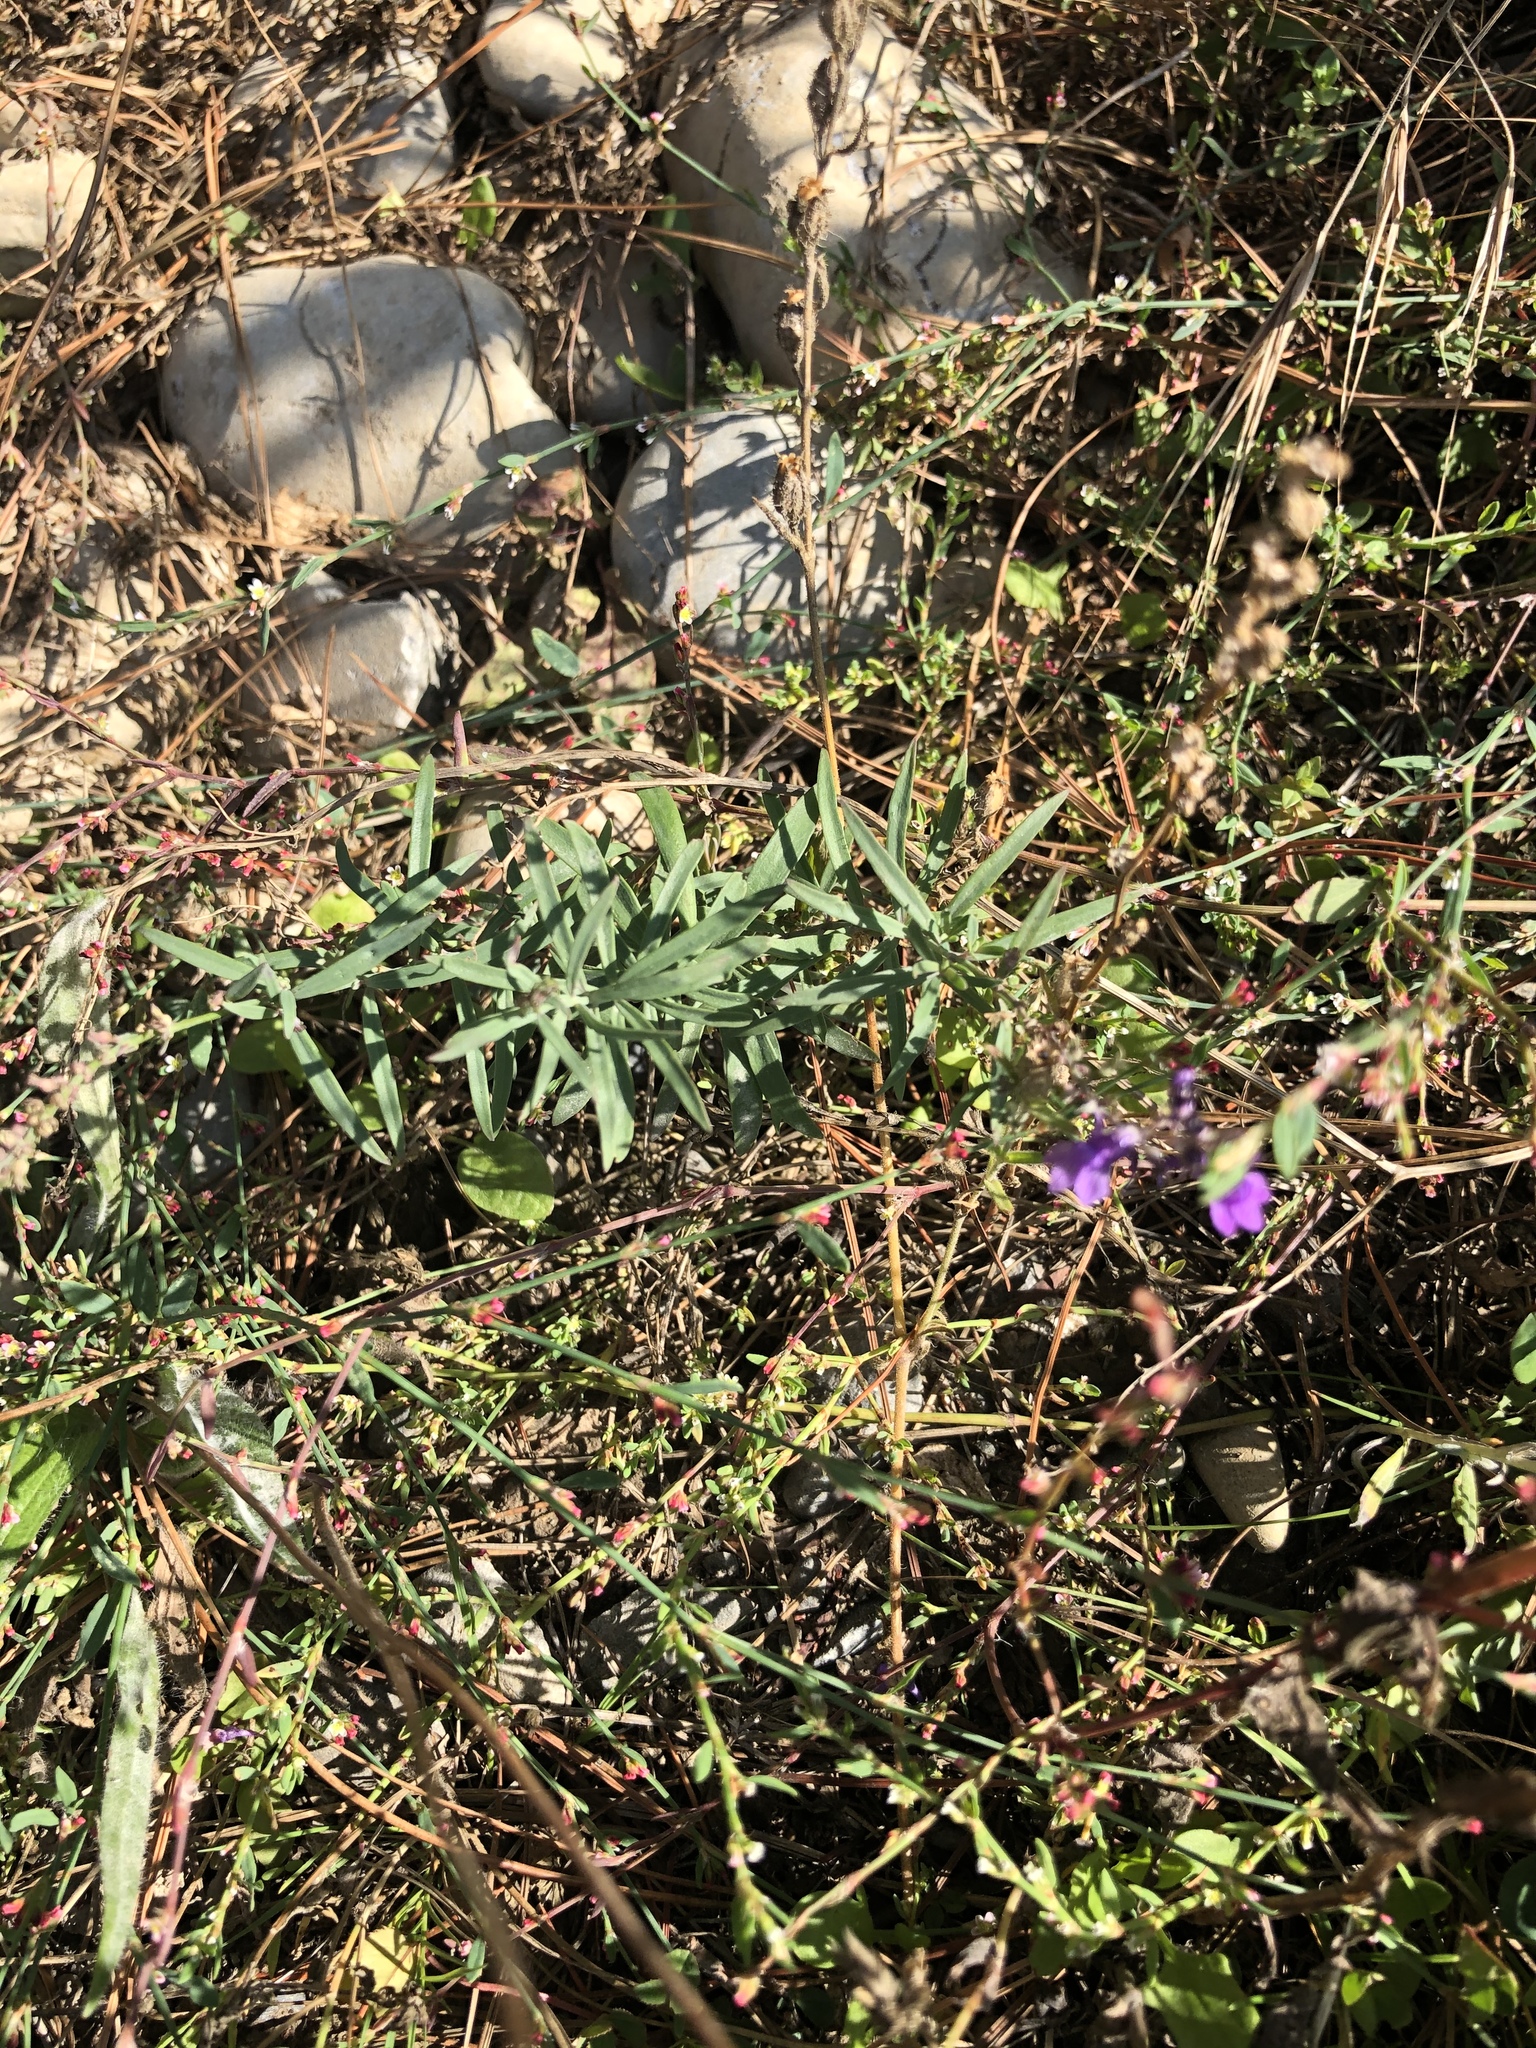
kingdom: Plantae
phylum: Tracheophyta
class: Magnoliopsida
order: Lamiales
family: Plantaginaceae
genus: Linaria
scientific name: Linaria purpurea
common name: Purple toadflax
